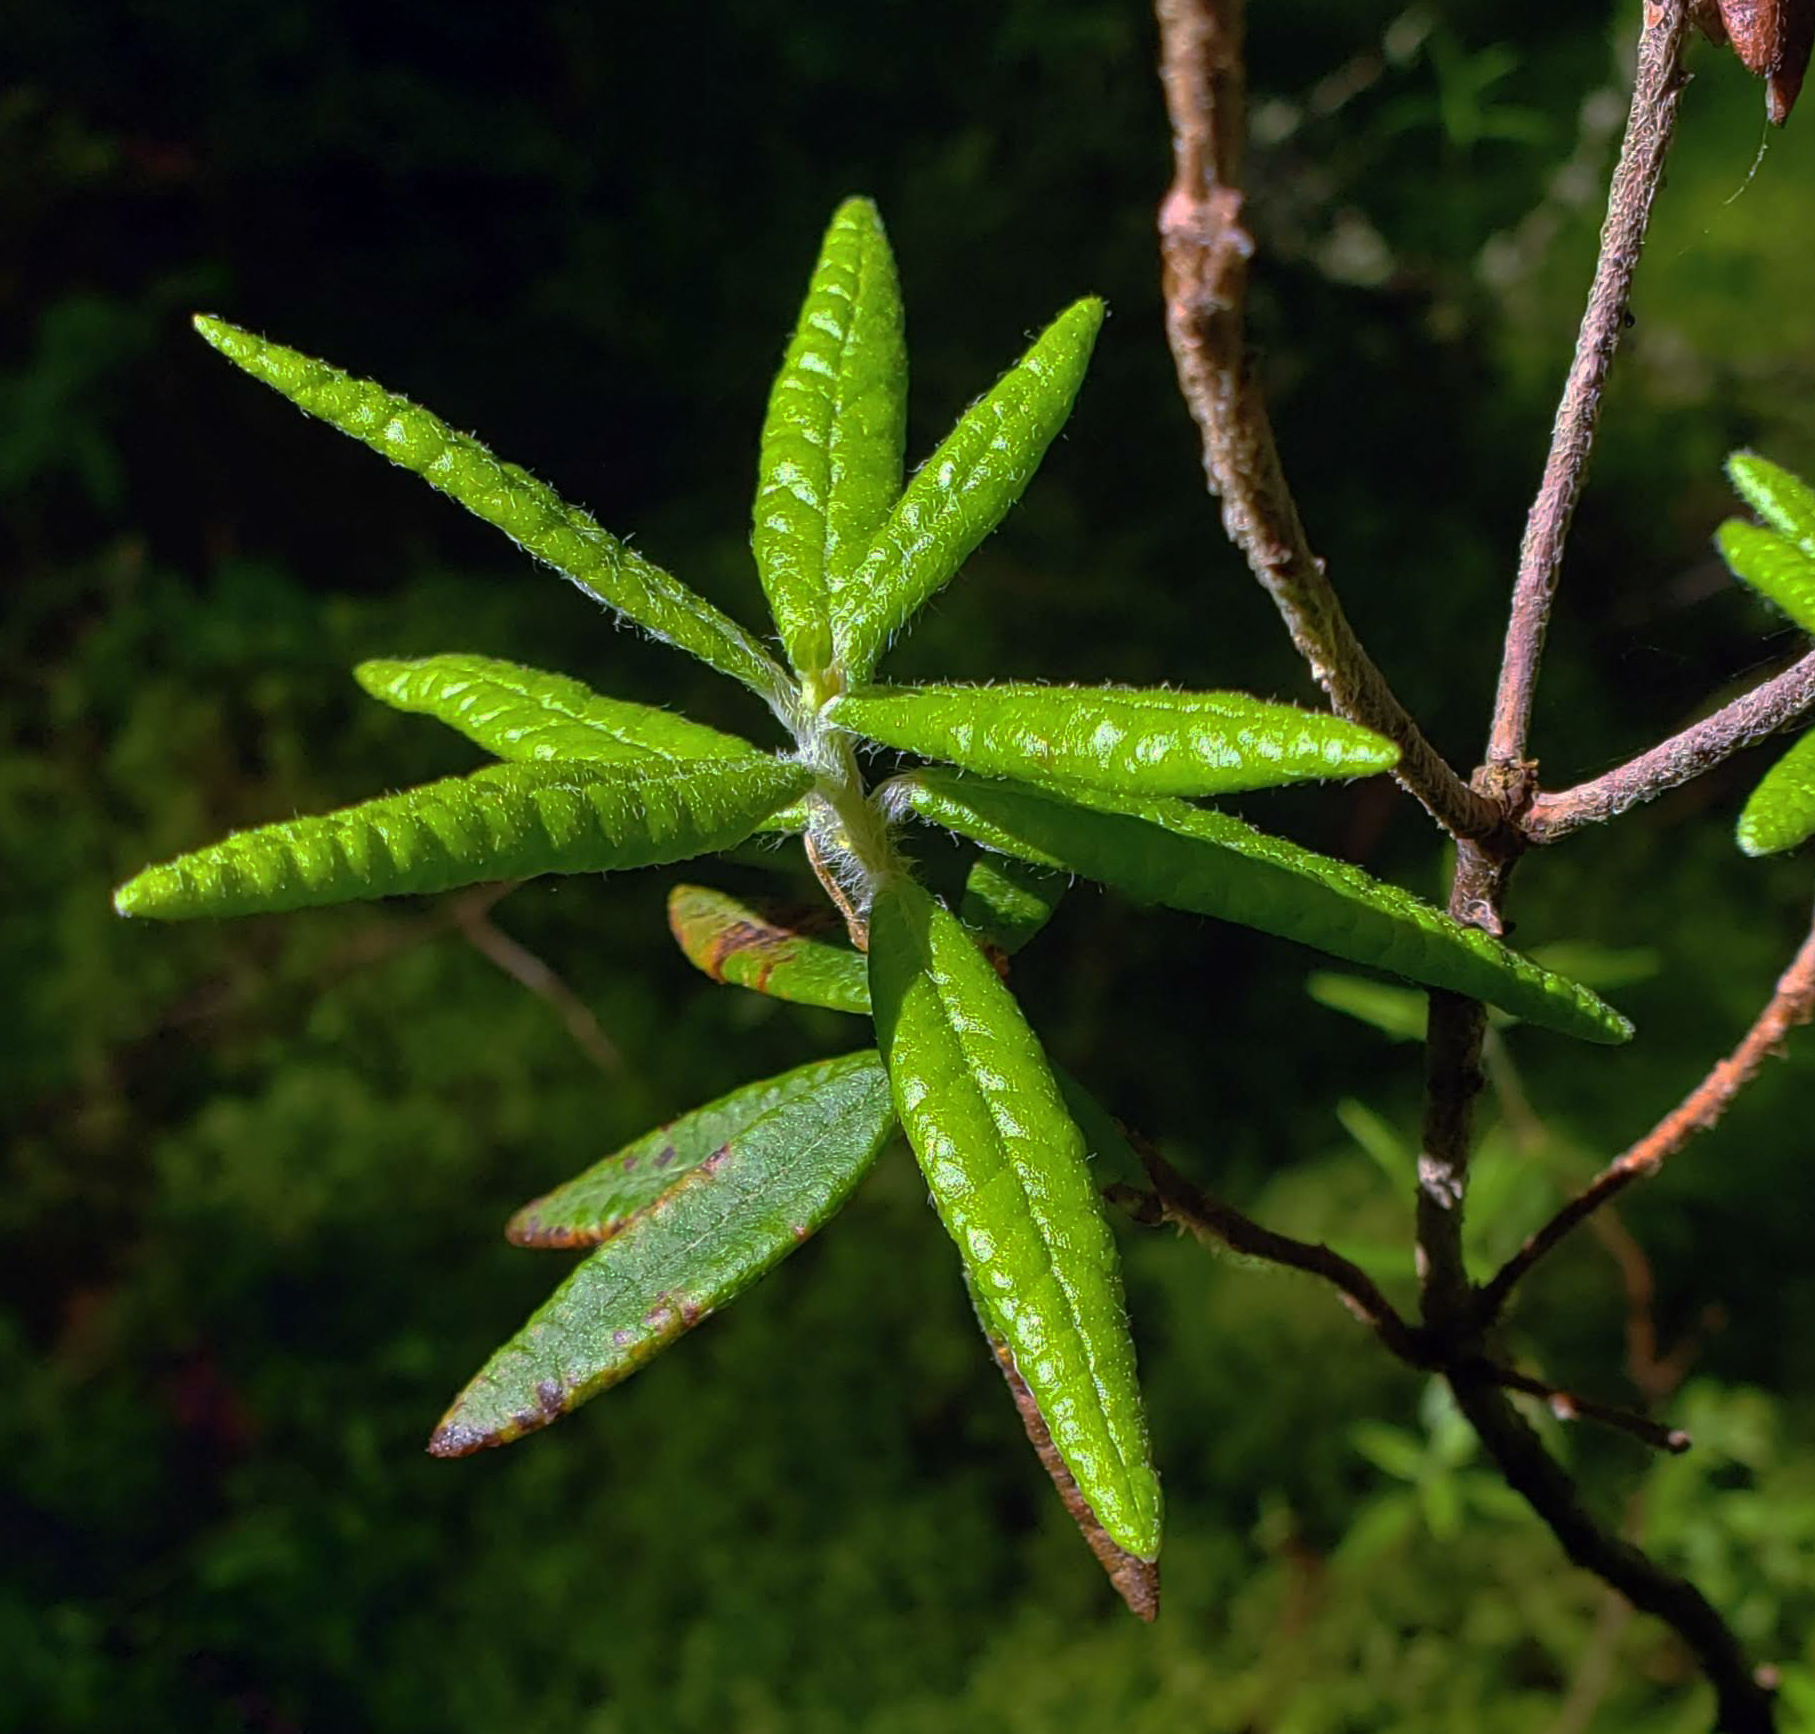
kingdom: Plantae
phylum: Tracheophyta
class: Magnoliopsida
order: Ericales
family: Ericaceae
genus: Rhododendron
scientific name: Rhododendron groenlandicum
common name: Bog labrador tea
